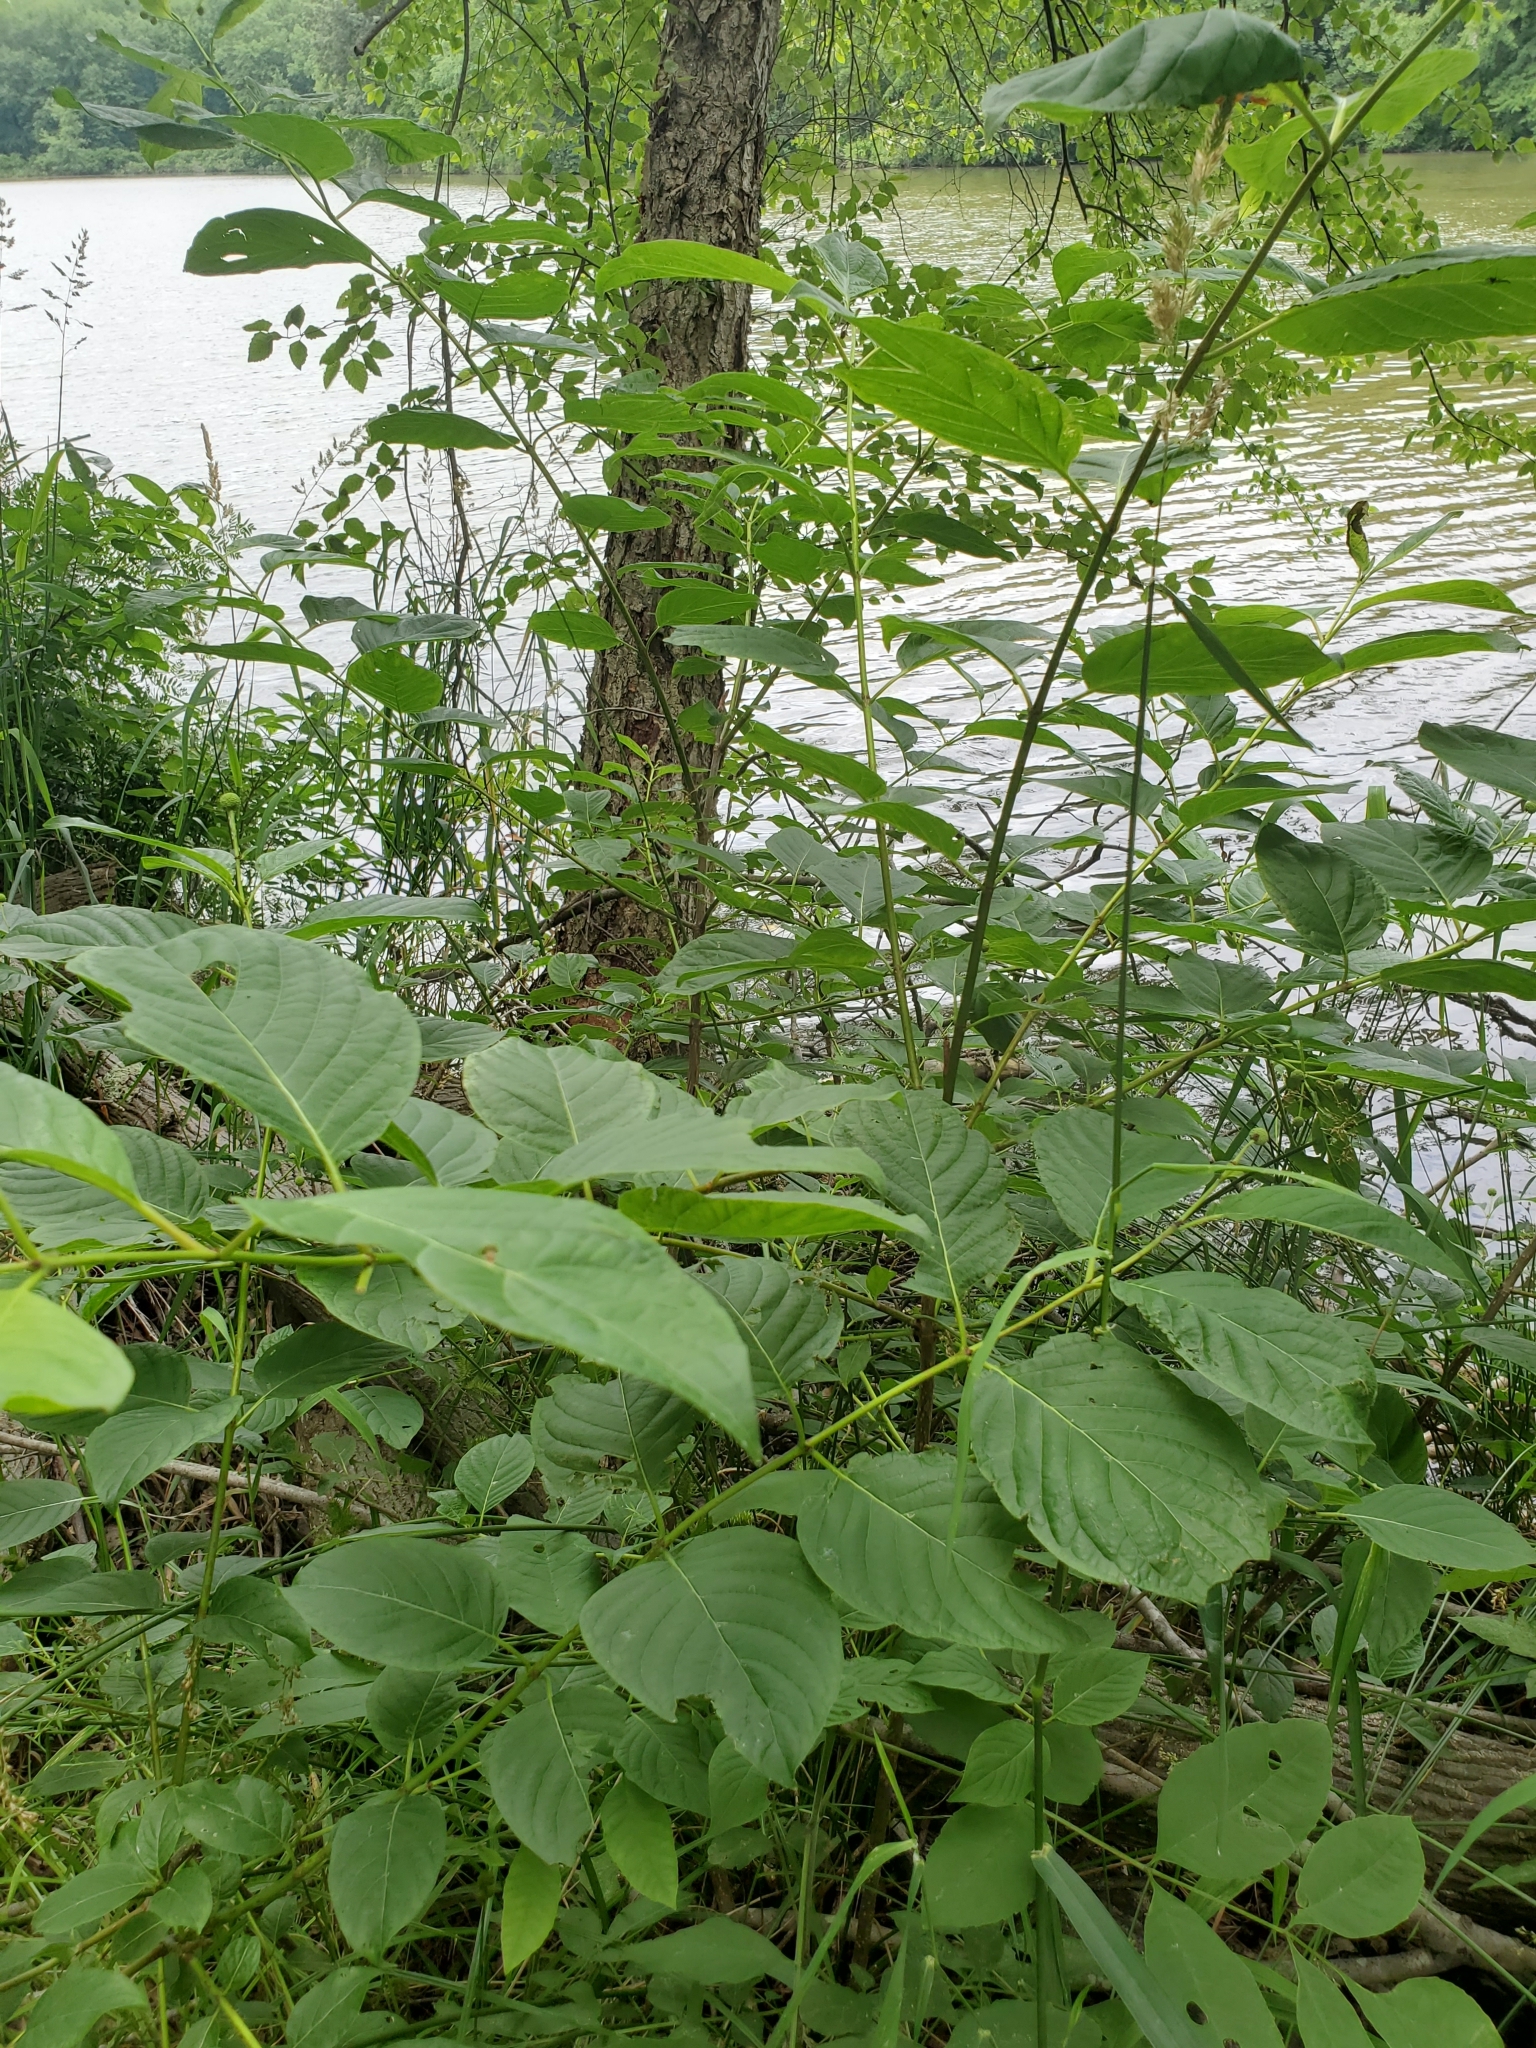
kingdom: Plantae
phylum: Tracheophyta
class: Magnoliopsida
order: Gentianales
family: Rubiaceae
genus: Cephalanthus
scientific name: Cephalanthus occidentalis
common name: Button-willow
